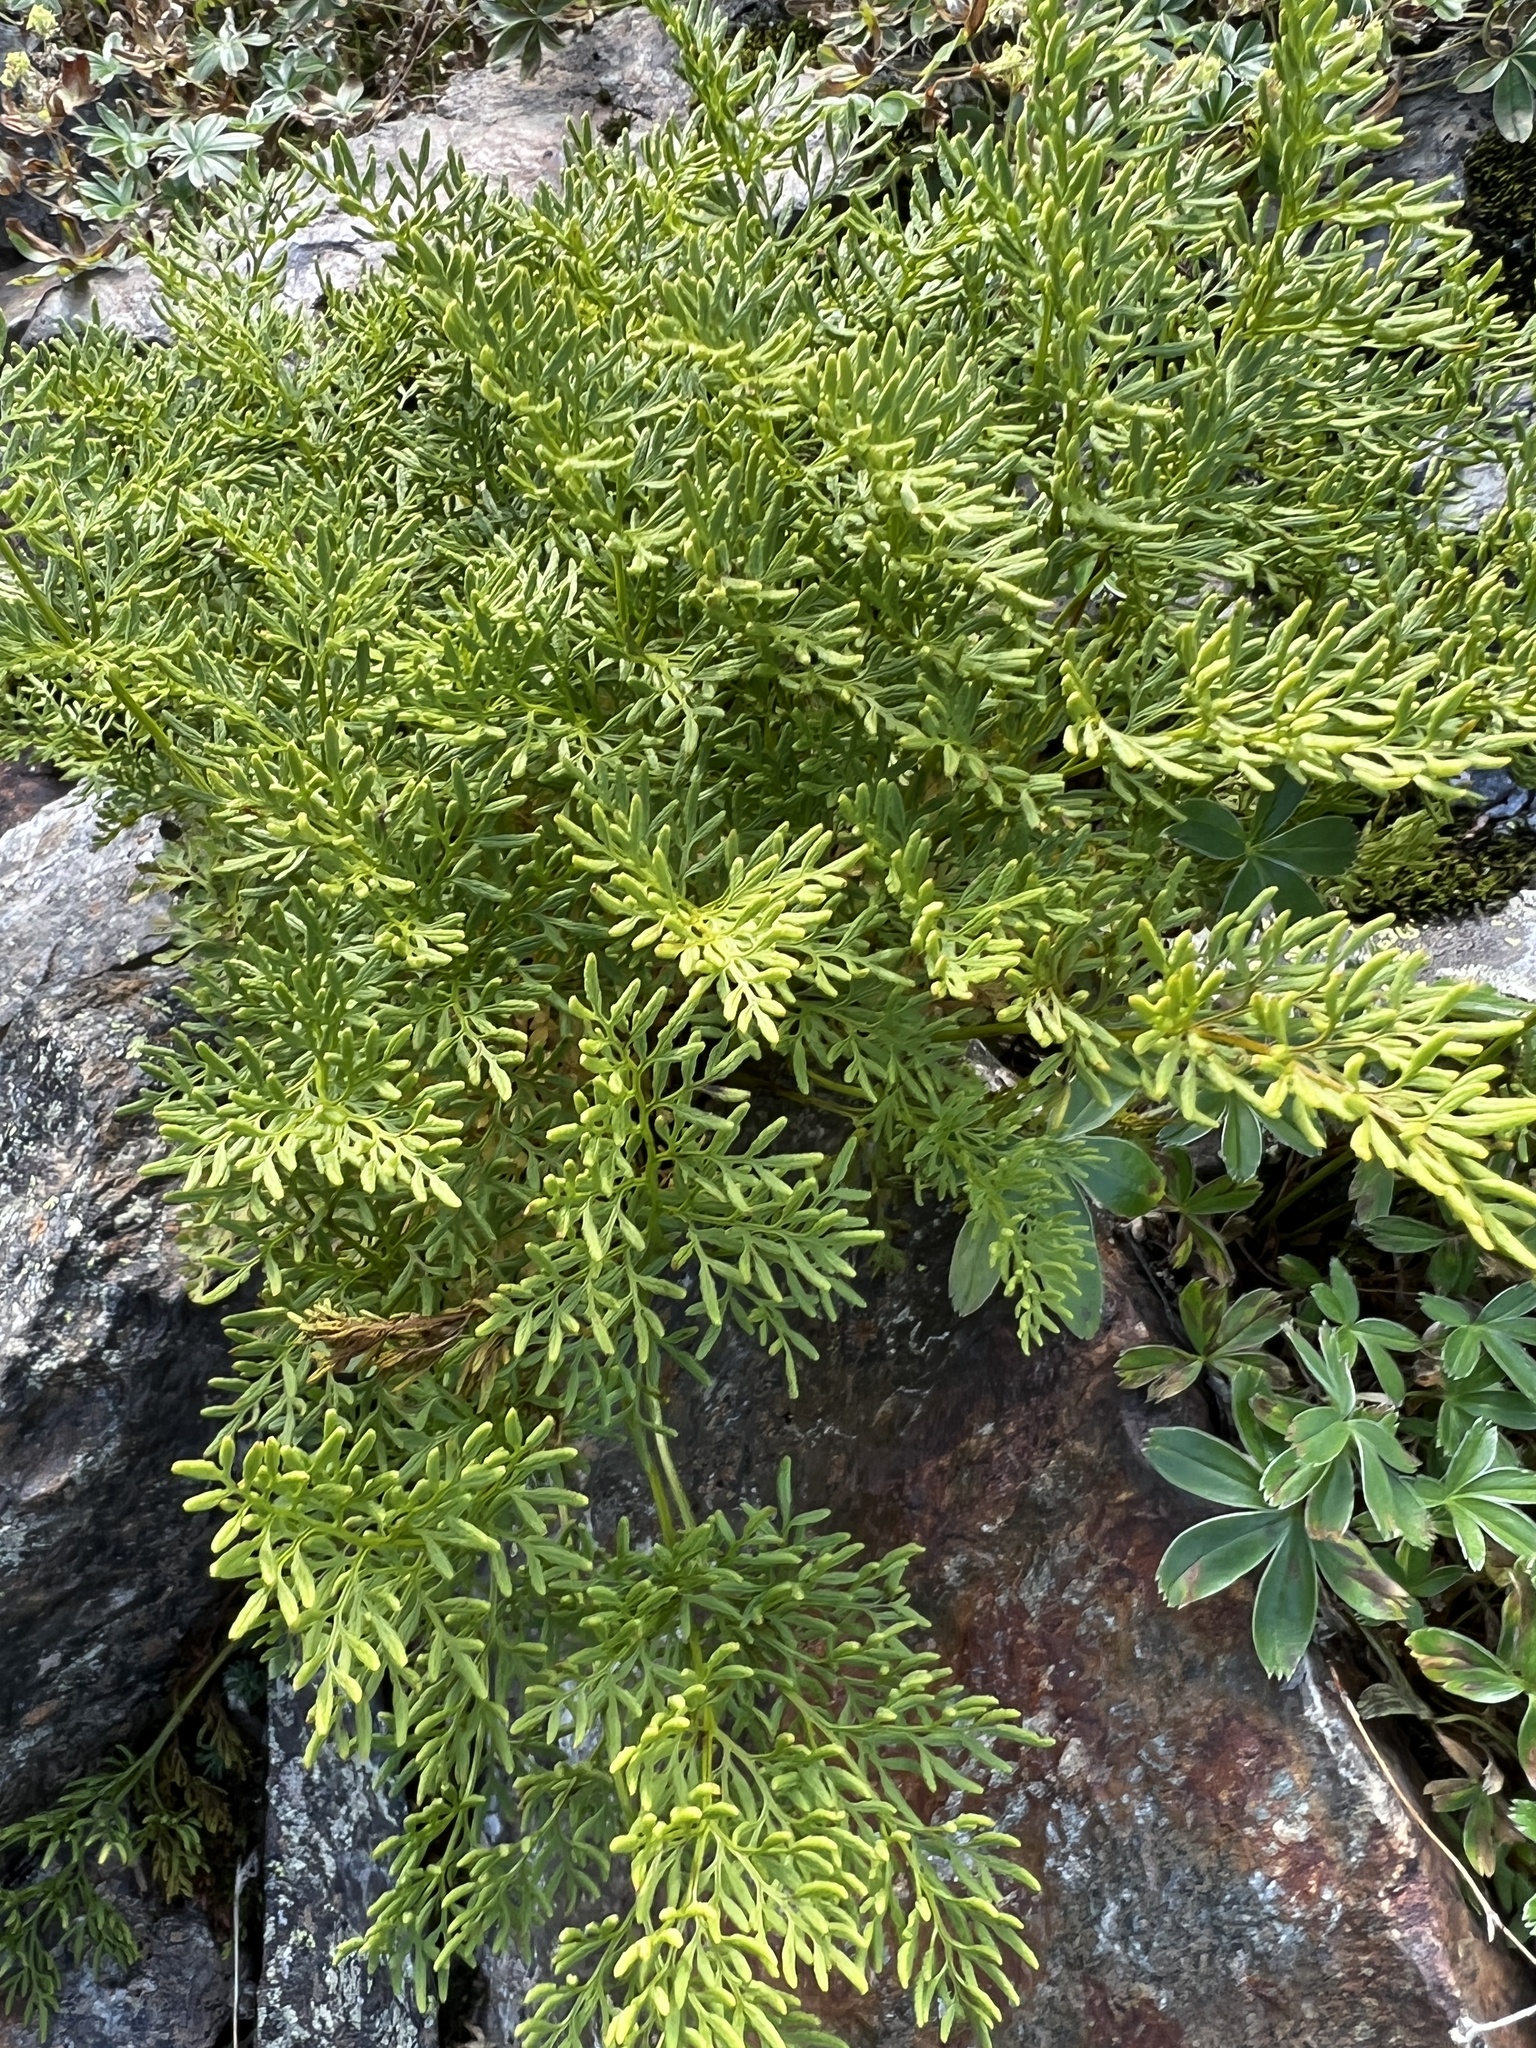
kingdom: Plantae
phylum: Tracheophyta
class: Polypodiopsida
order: Polypodiales
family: Pteridaceae
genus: Cryptogramma
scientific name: Cryptogramma crispa
